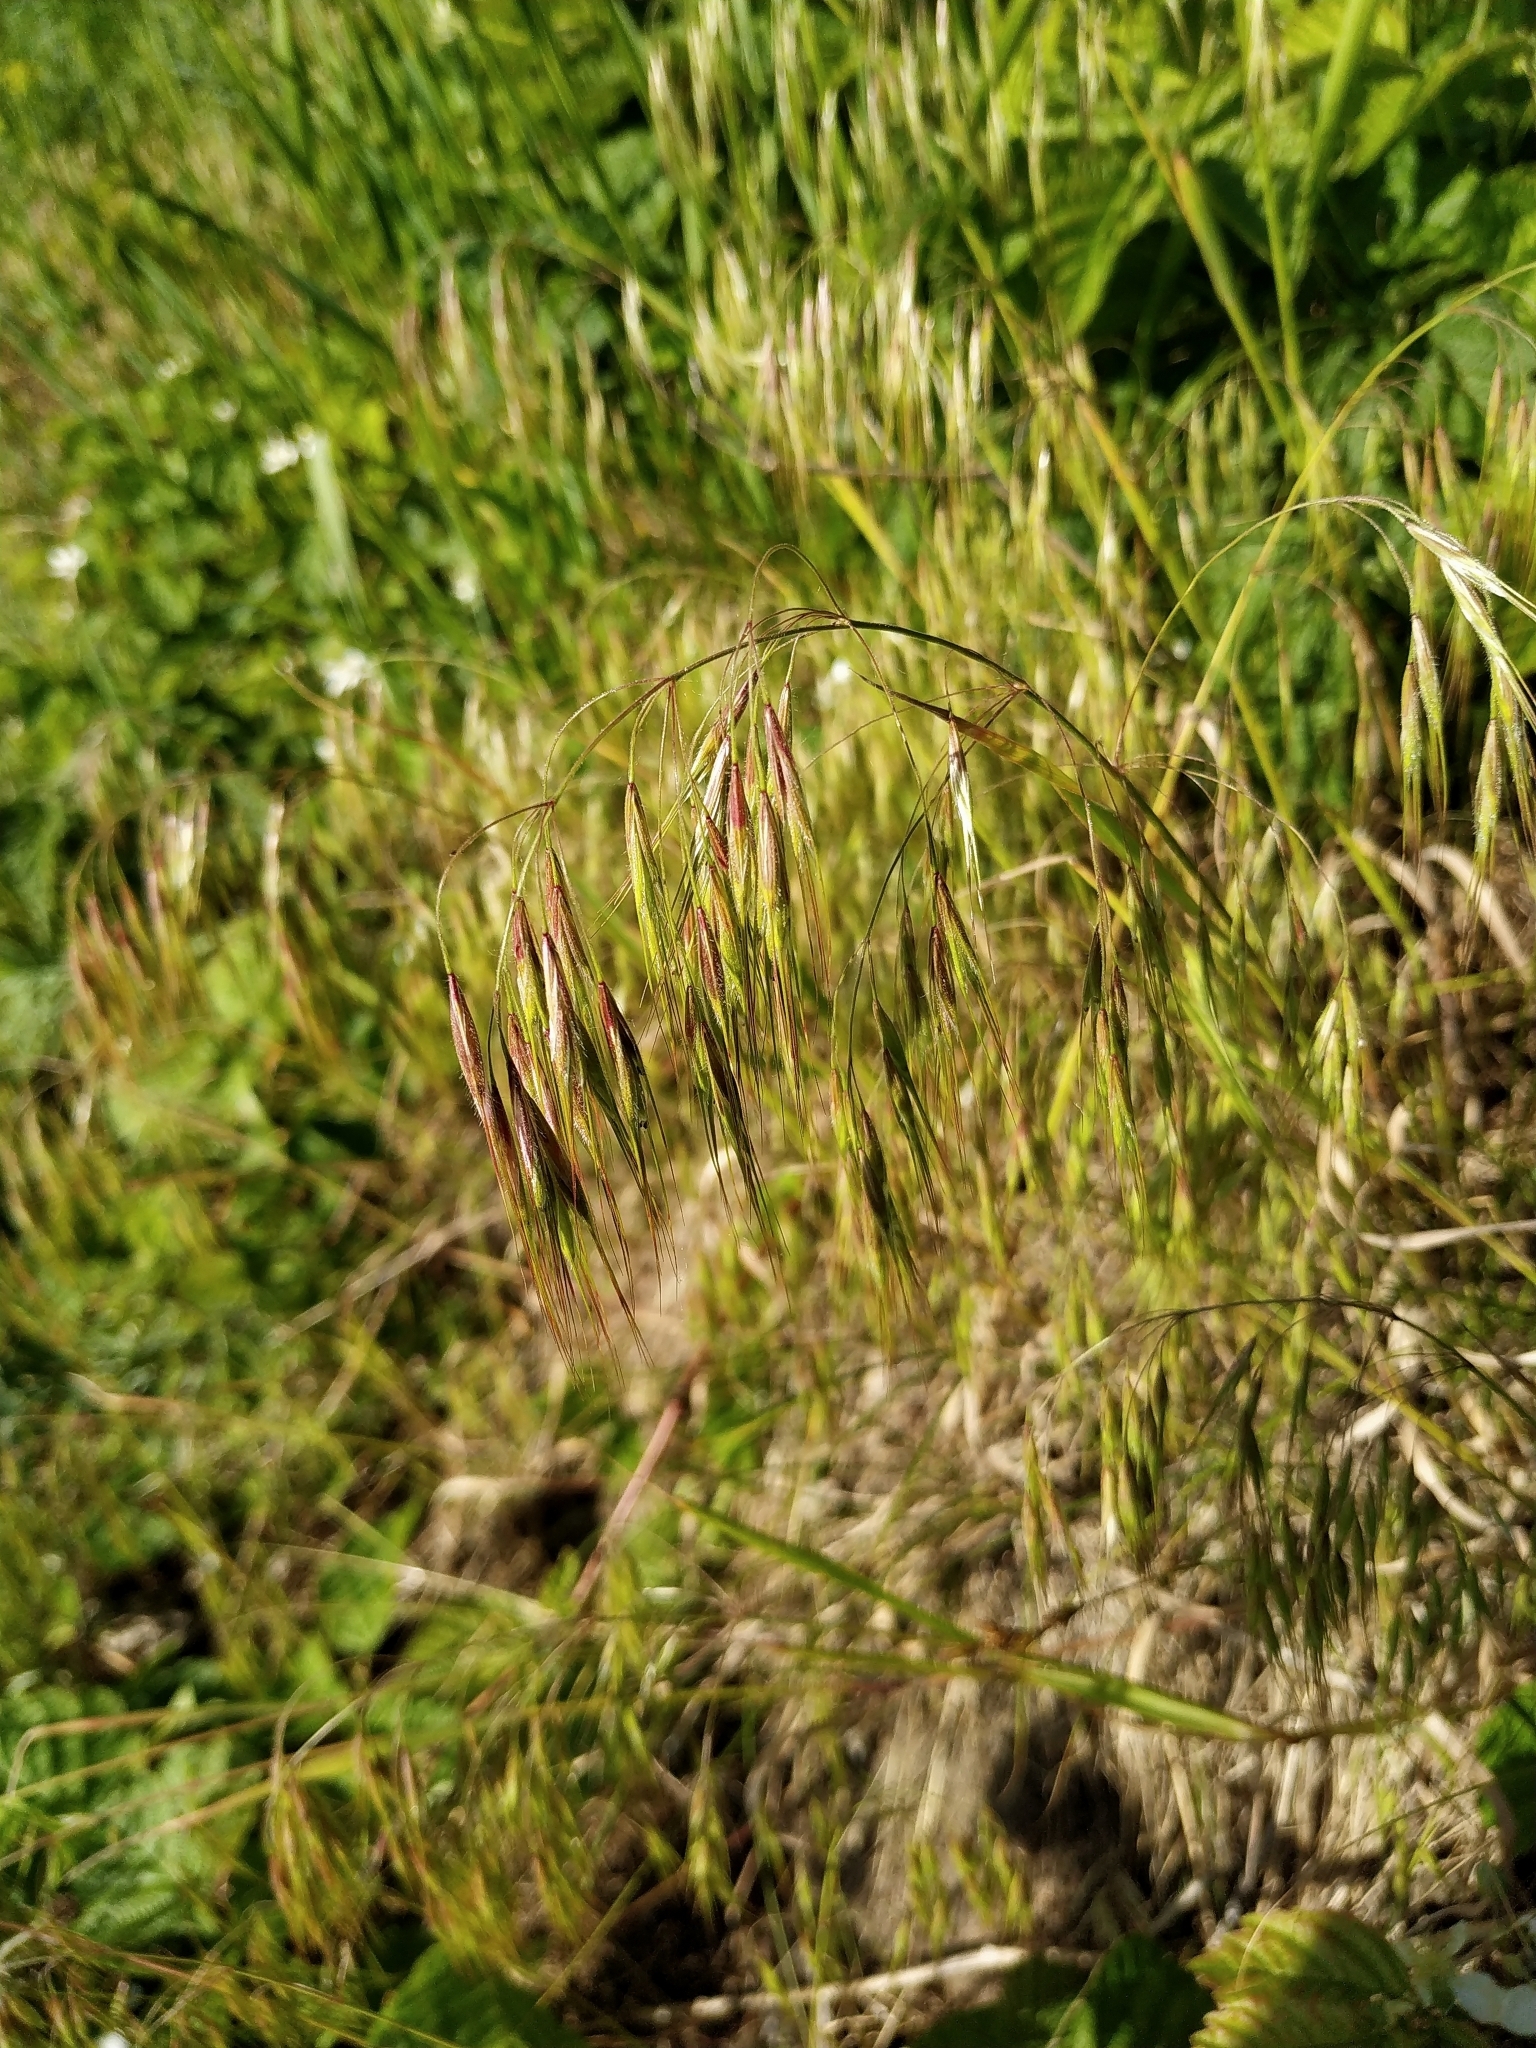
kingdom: Plantae
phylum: Tracheophyta
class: Liliopsida
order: Poales
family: Poaceae
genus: Bromus
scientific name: Bromus tectorum
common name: Cheatgrass
